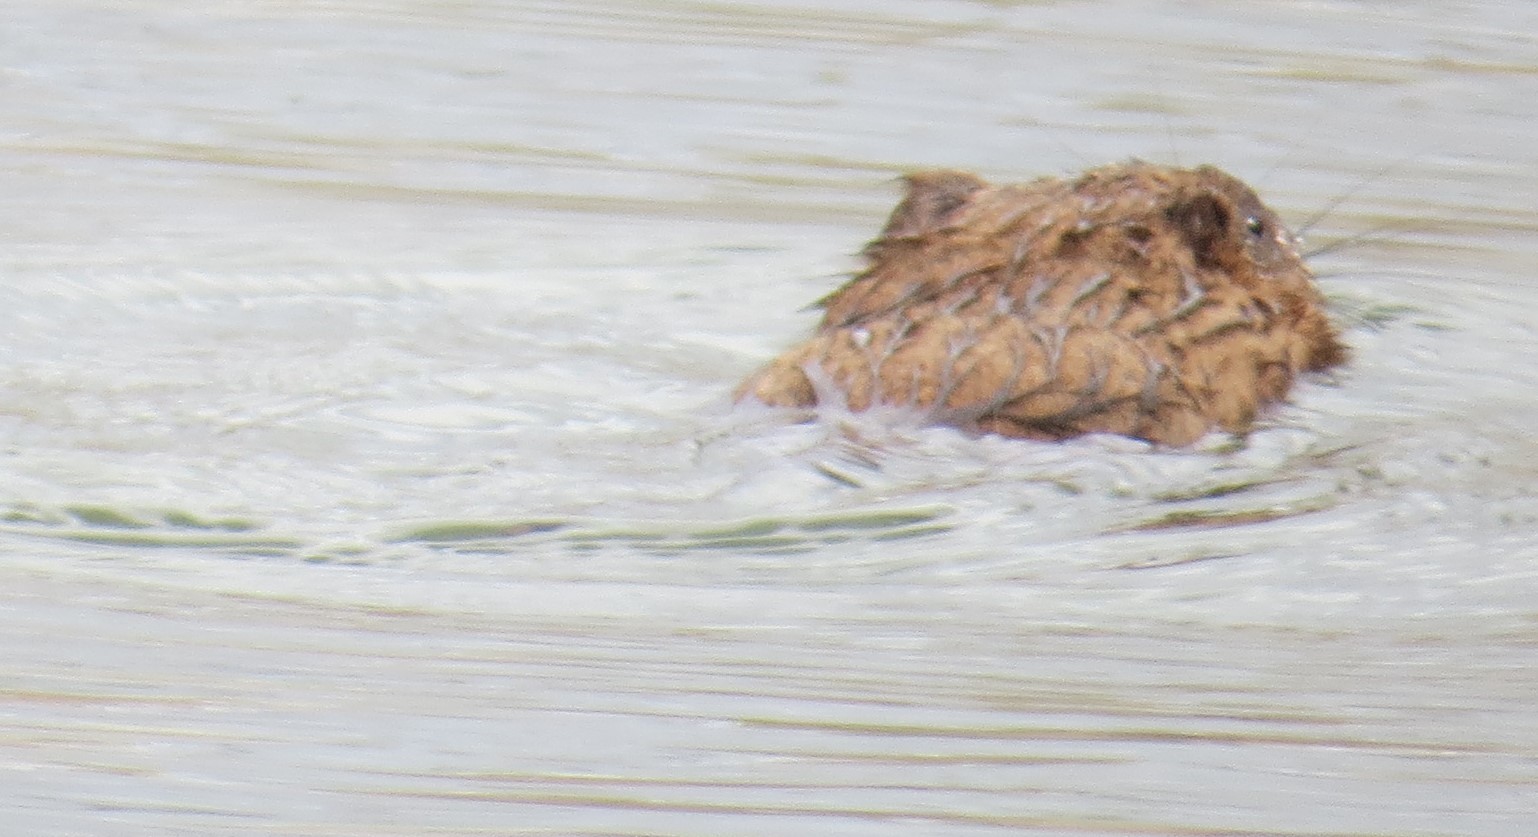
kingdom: Animalia
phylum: Chordata
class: Mammalia
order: Rodentia
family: Cricetidae
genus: Ondatra
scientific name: Ondatra zibethicus
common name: Muskrat
